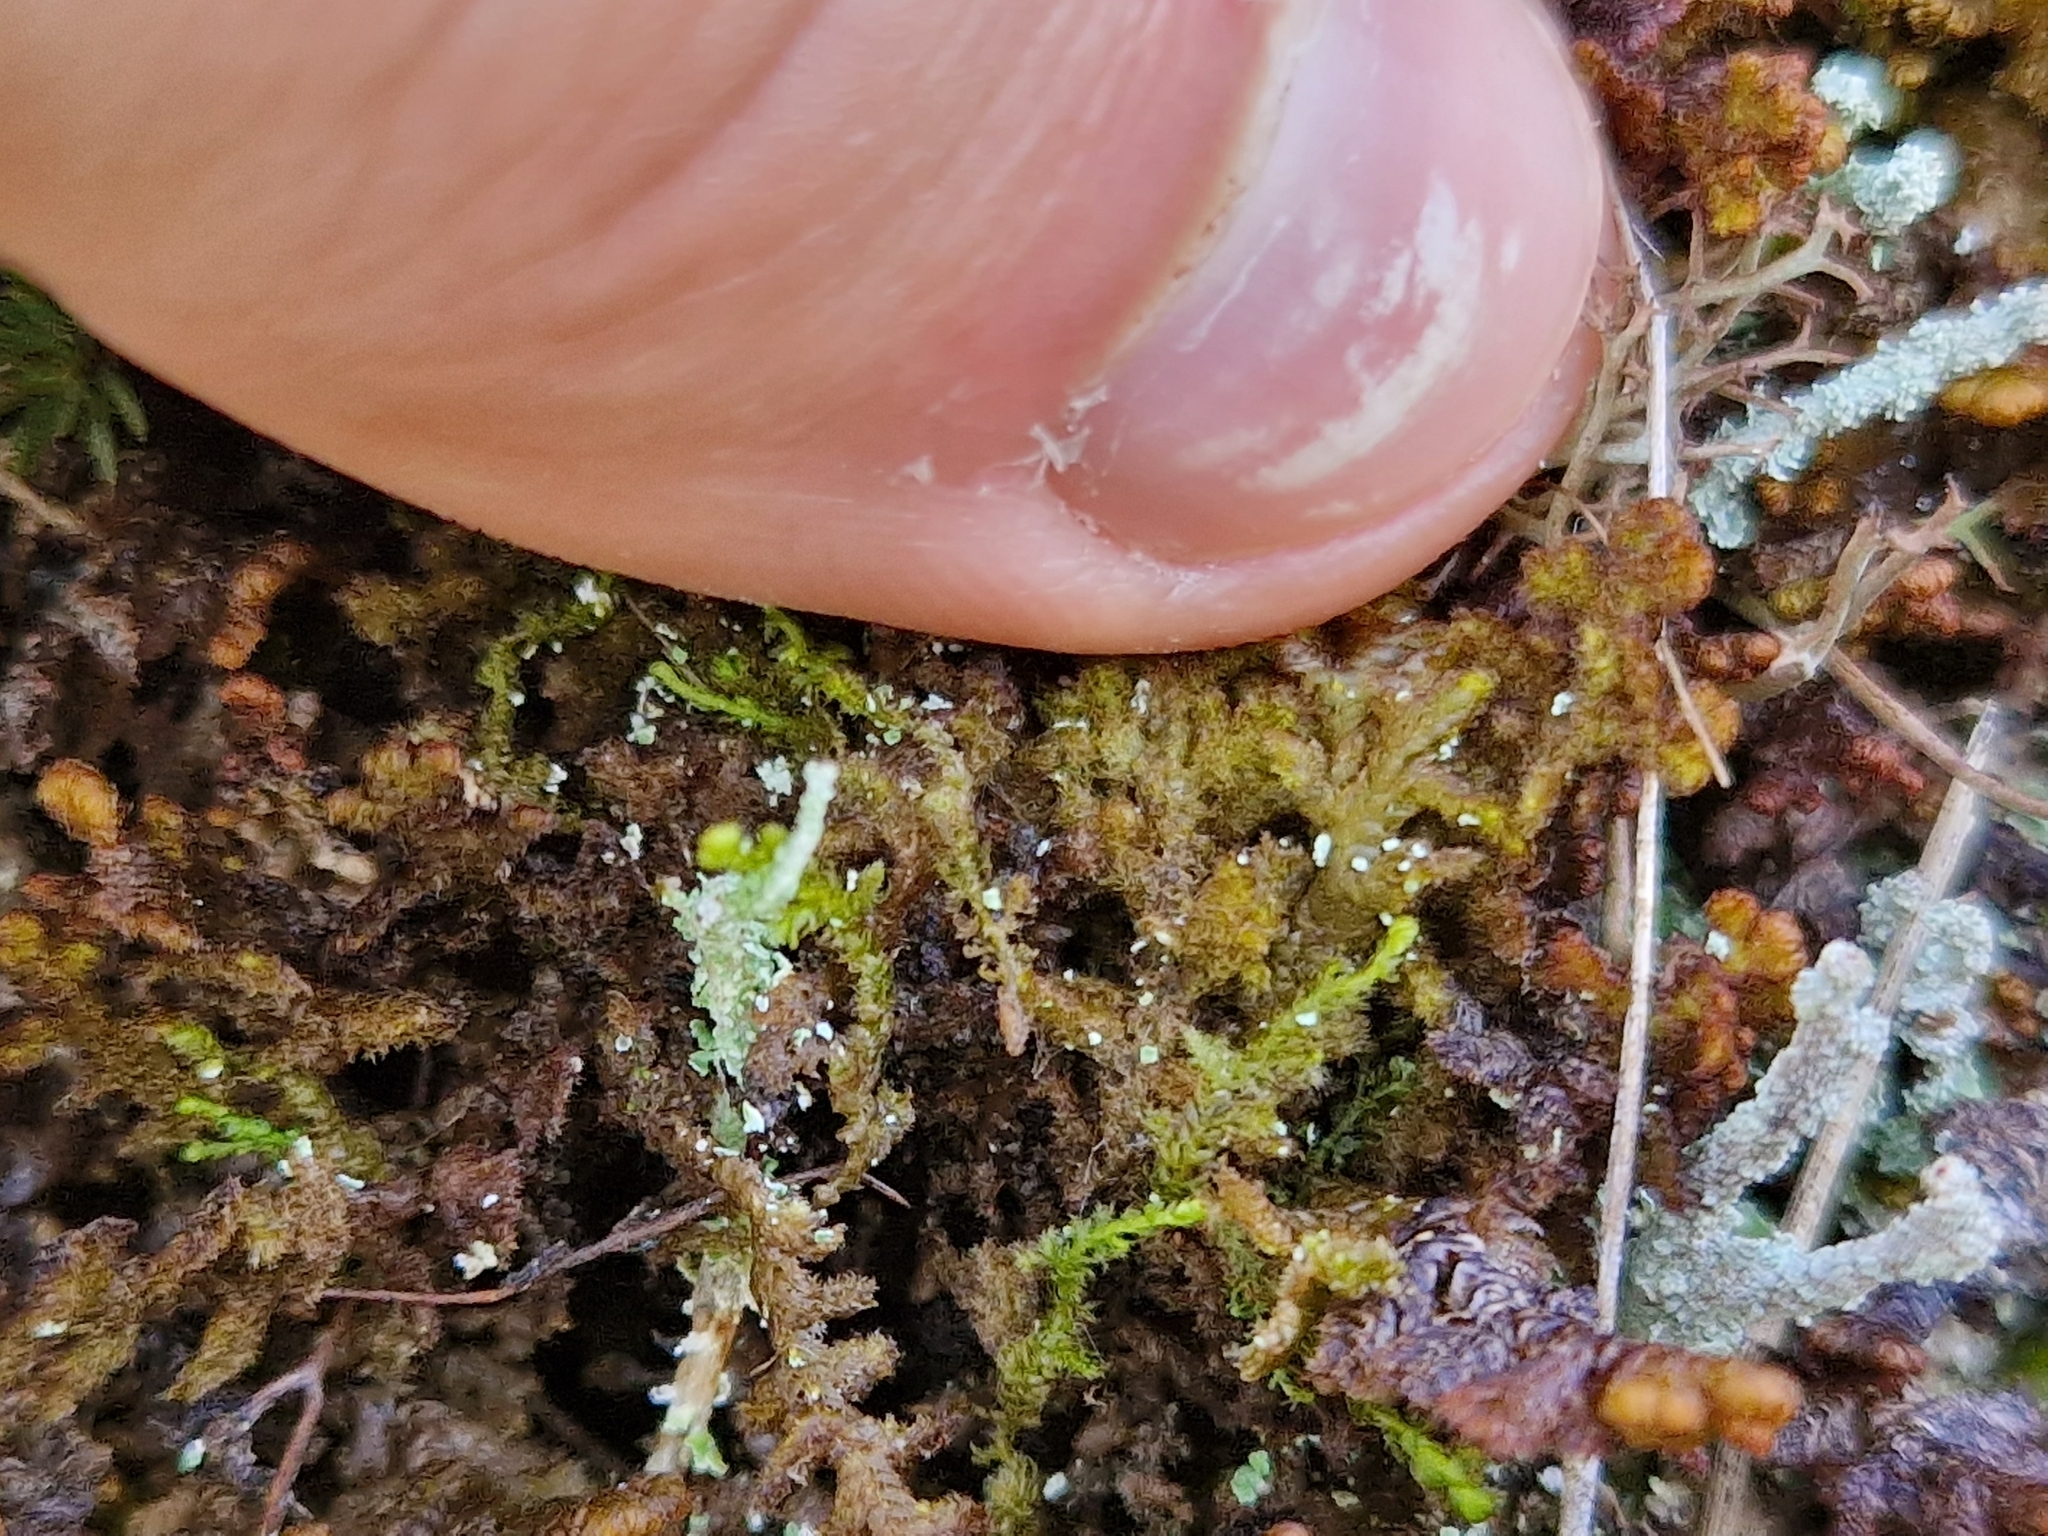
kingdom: Plantae
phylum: Marchantiophyta
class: Jungermanniopsida
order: Ptilidiales
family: Ptilidiaceae
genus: Ptilidium
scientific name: Ptilidium ciliare
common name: Ciliate fringewort
